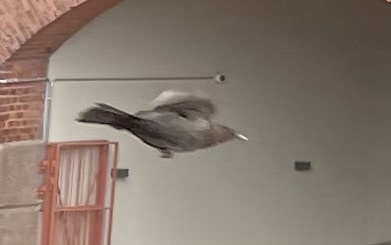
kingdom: Animalia
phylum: Chordata
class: Aves
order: Passeriformes
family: Turdidae
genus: Turdus
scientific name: Turdus merula
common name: Common blackbird
